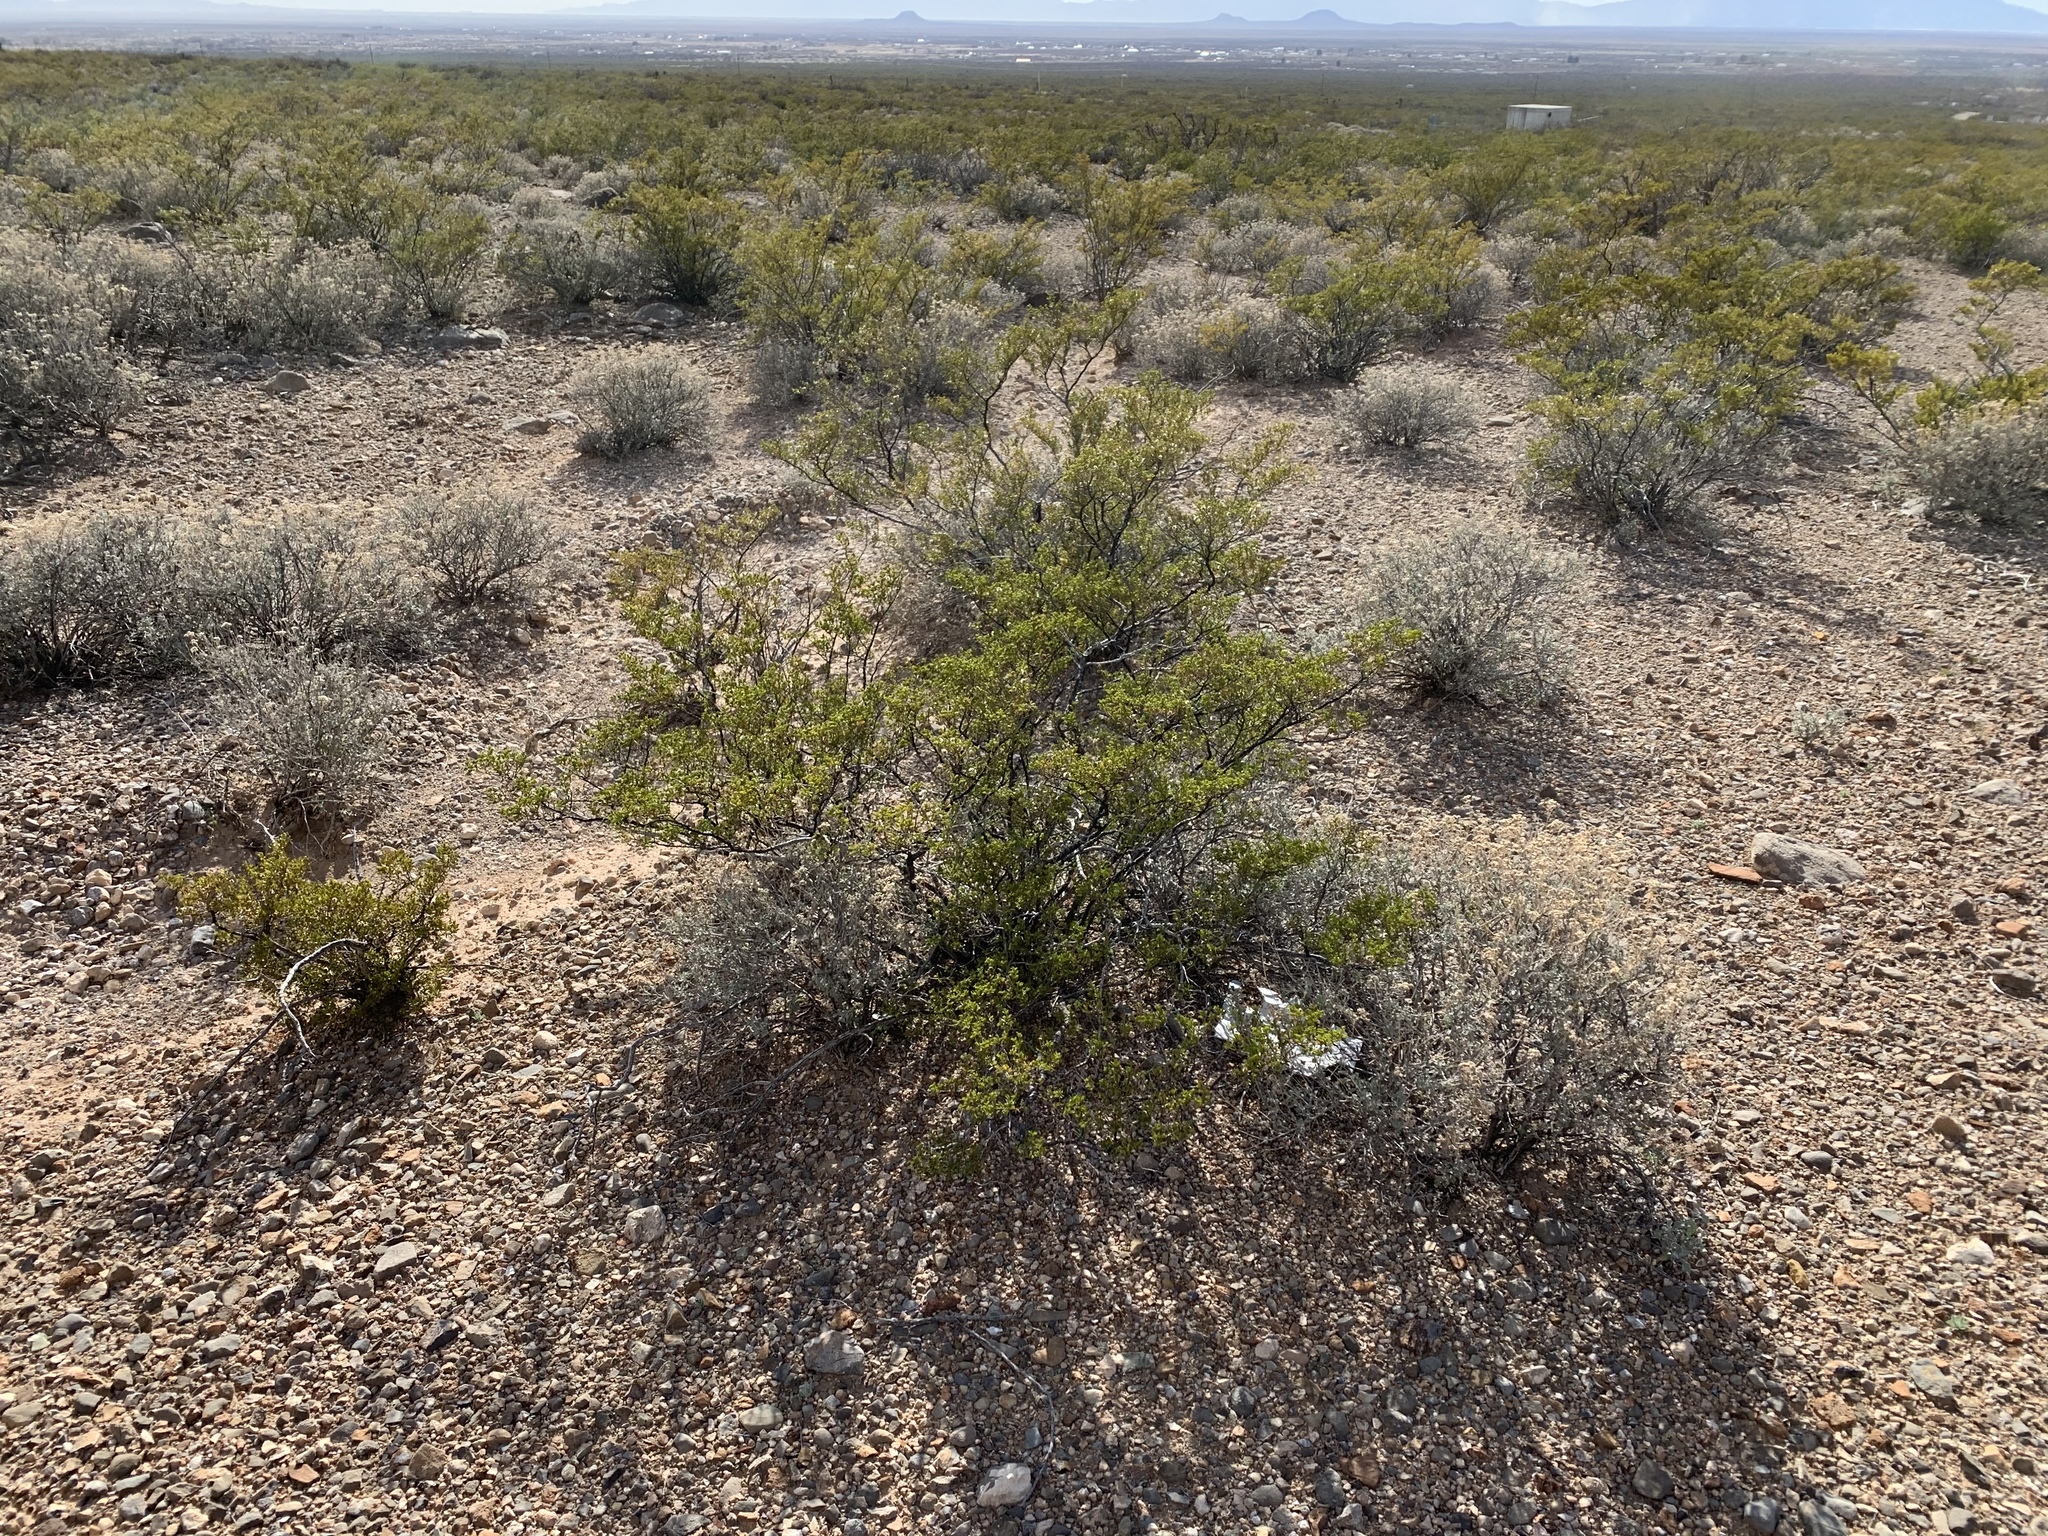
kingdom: Plantae
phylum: Tracheophyta
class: Magnoliopsida
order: Zygophyllales
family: Zygophyllaceae
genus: Larrea
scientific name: Larrea tridentata
